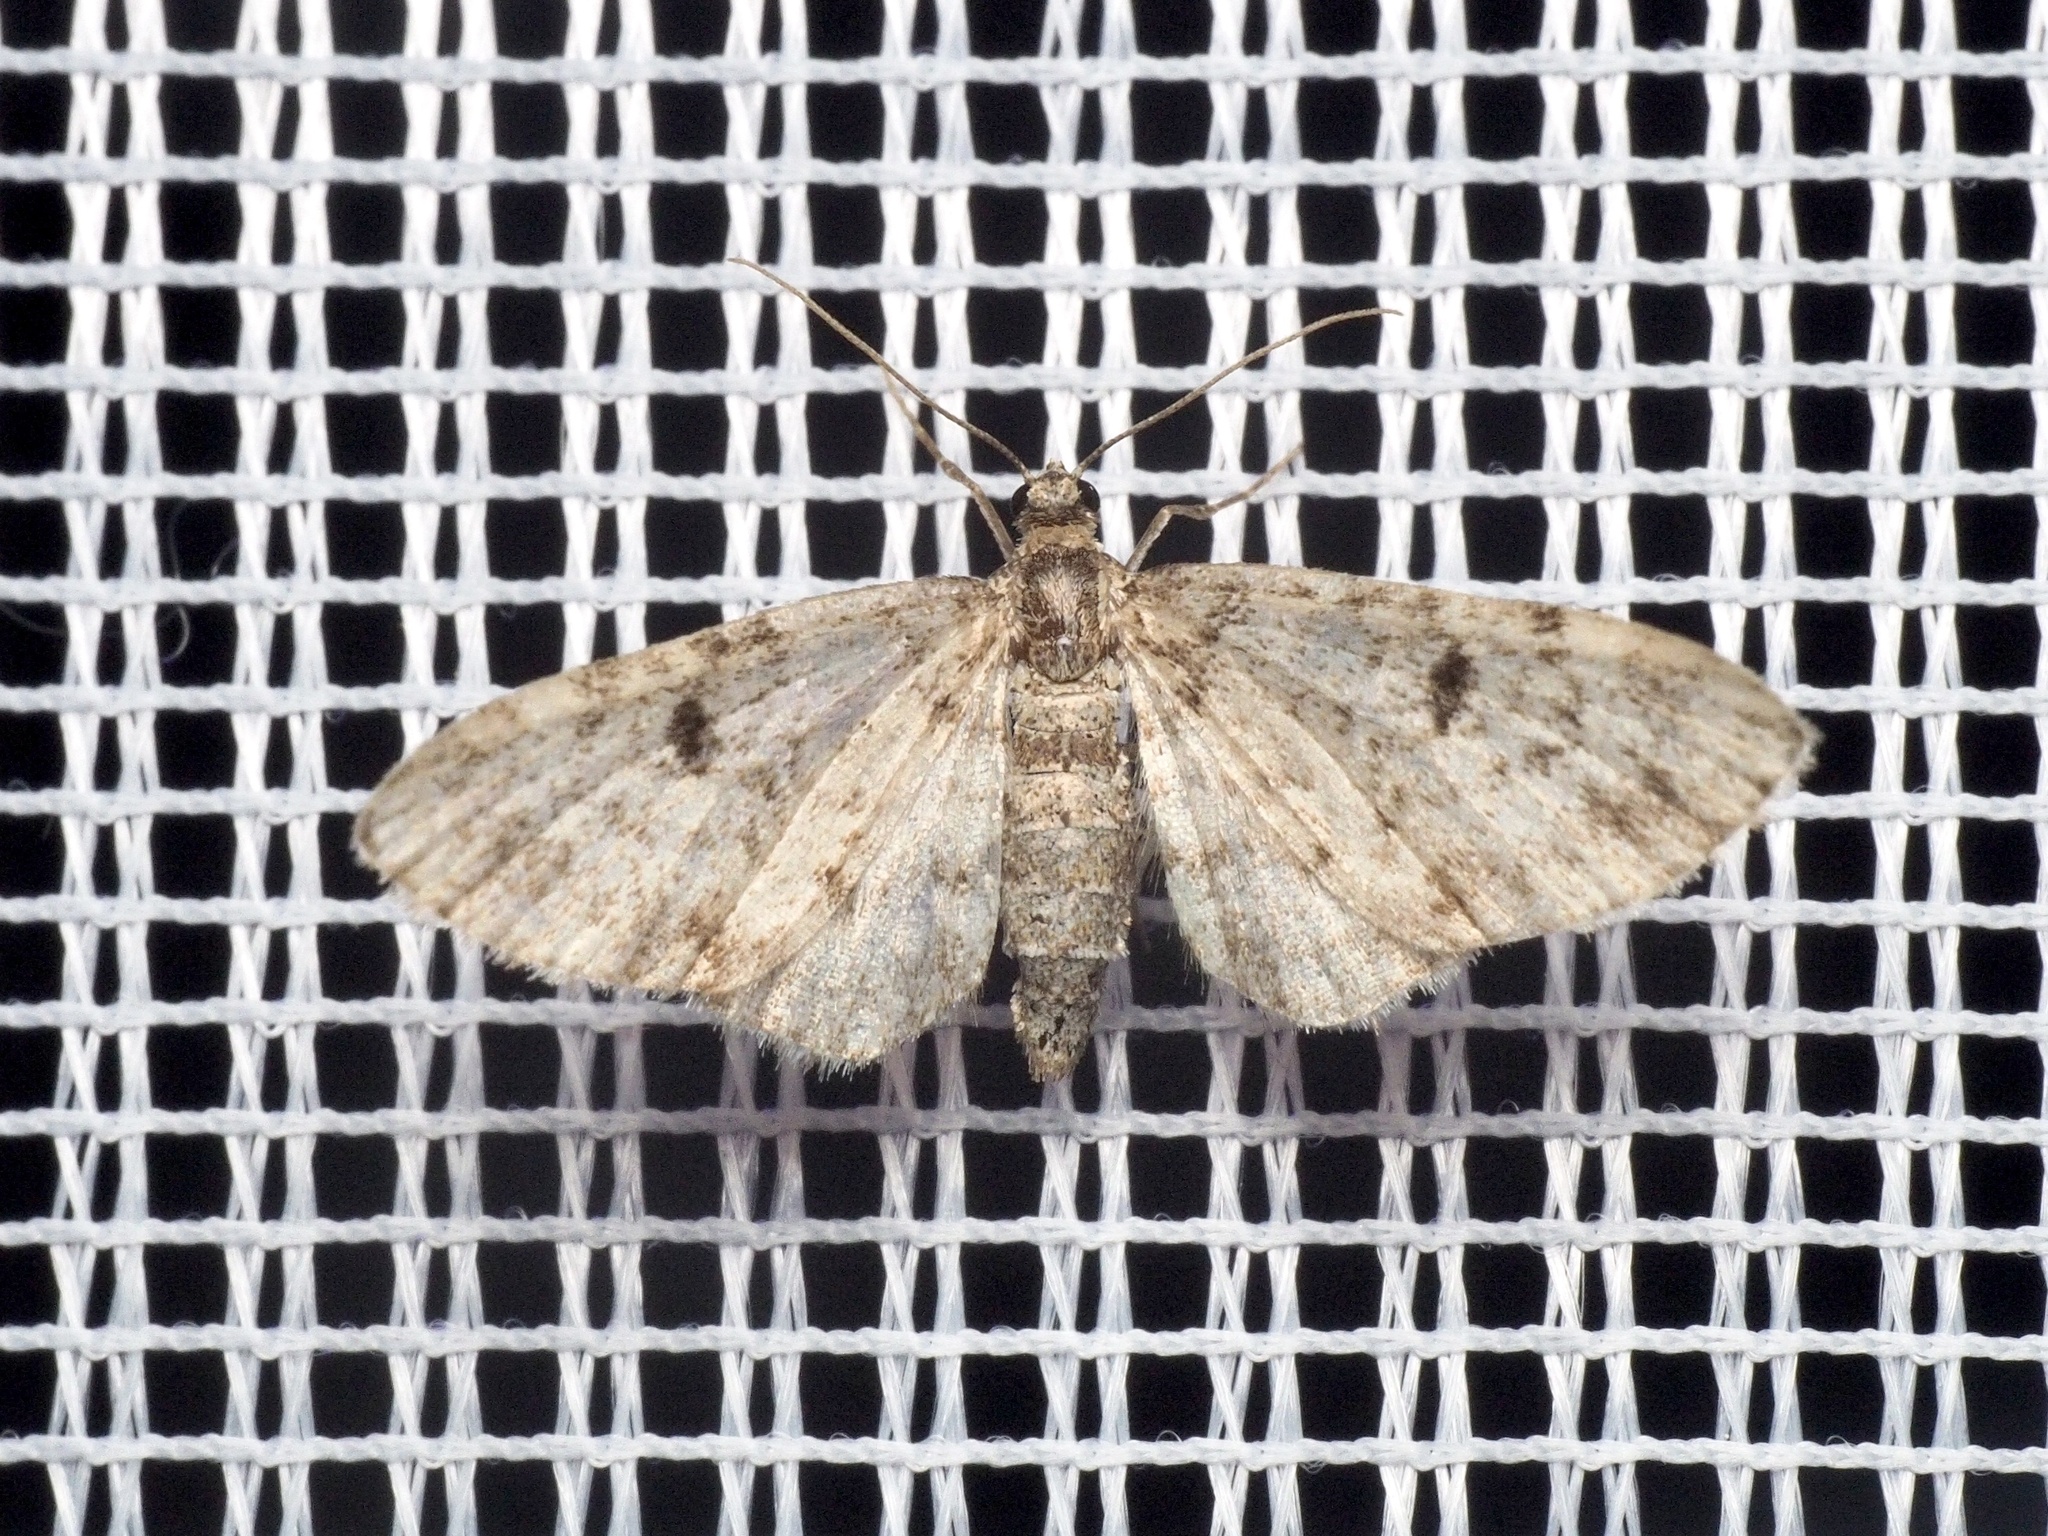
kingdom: Animalia
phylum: Arthropoda
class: Insecta
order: Lepidoptera
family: Geometridae
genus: Eupithecia
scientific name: Eupithecia tantillaria
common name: Dwarf pug
